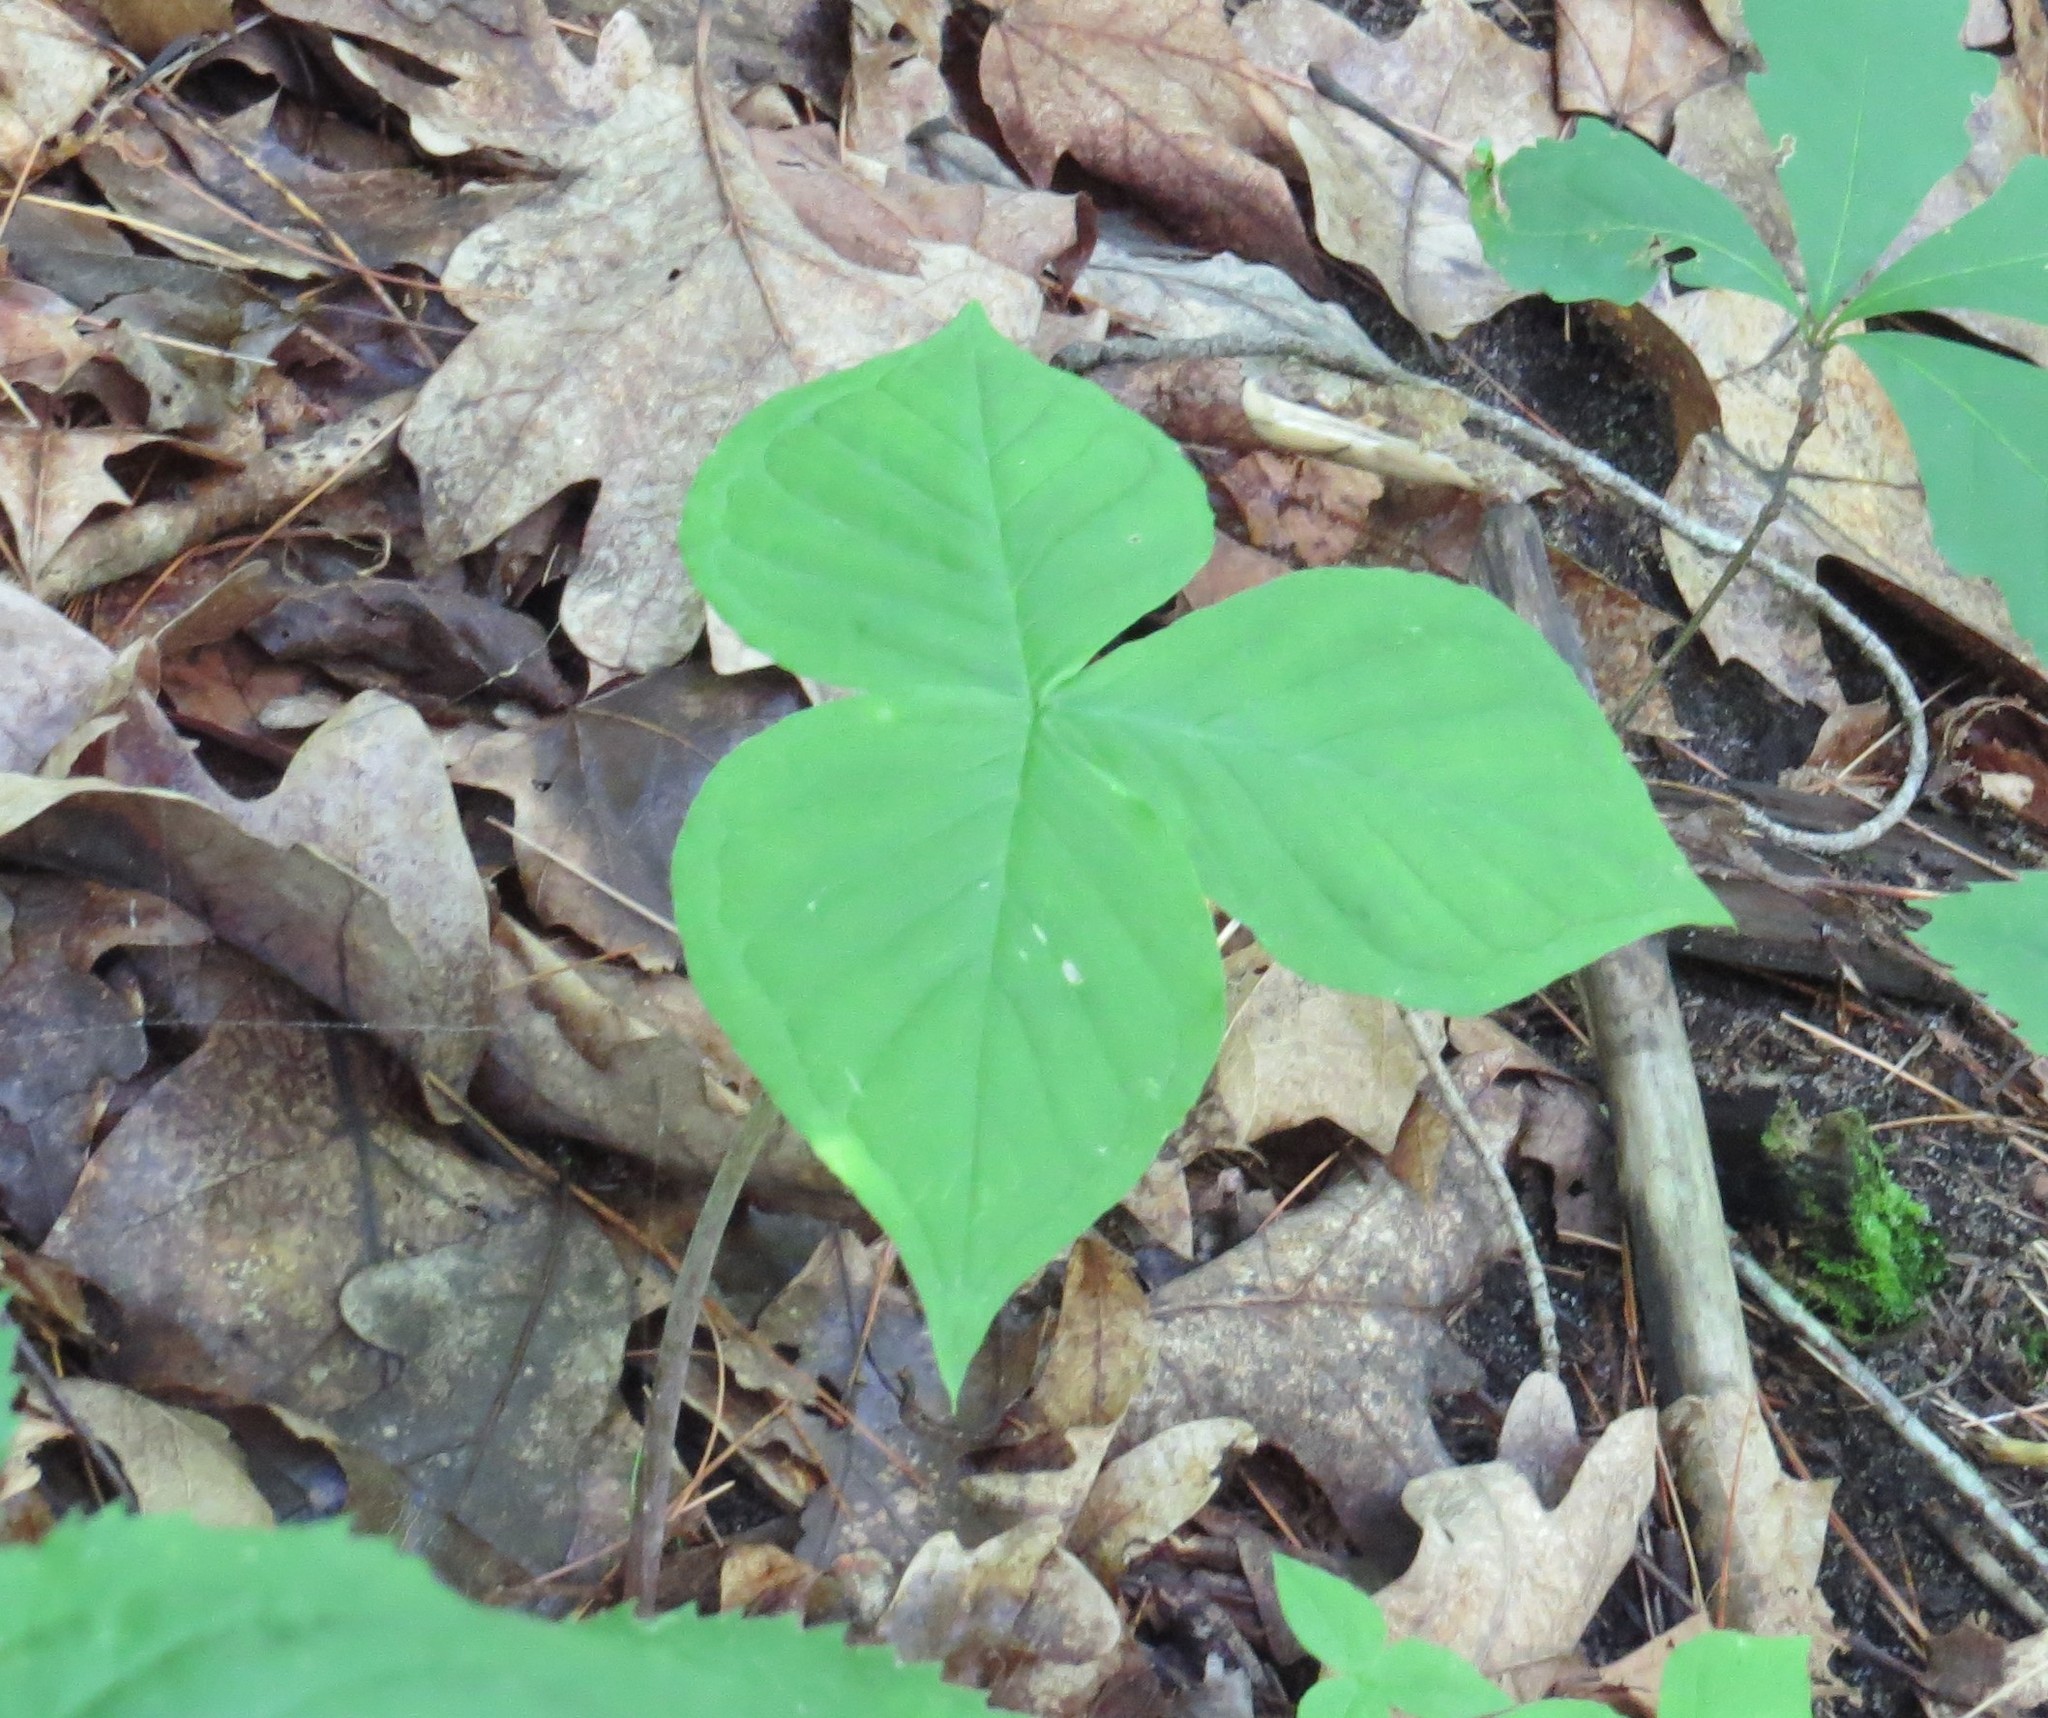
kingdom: Plantae
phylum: Tracheophyta
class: Liliopsida
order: Alismatales
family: Araceae
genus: Arisaema
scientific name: Arisaema triphyllum
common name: Jack-in-the-pulpit
